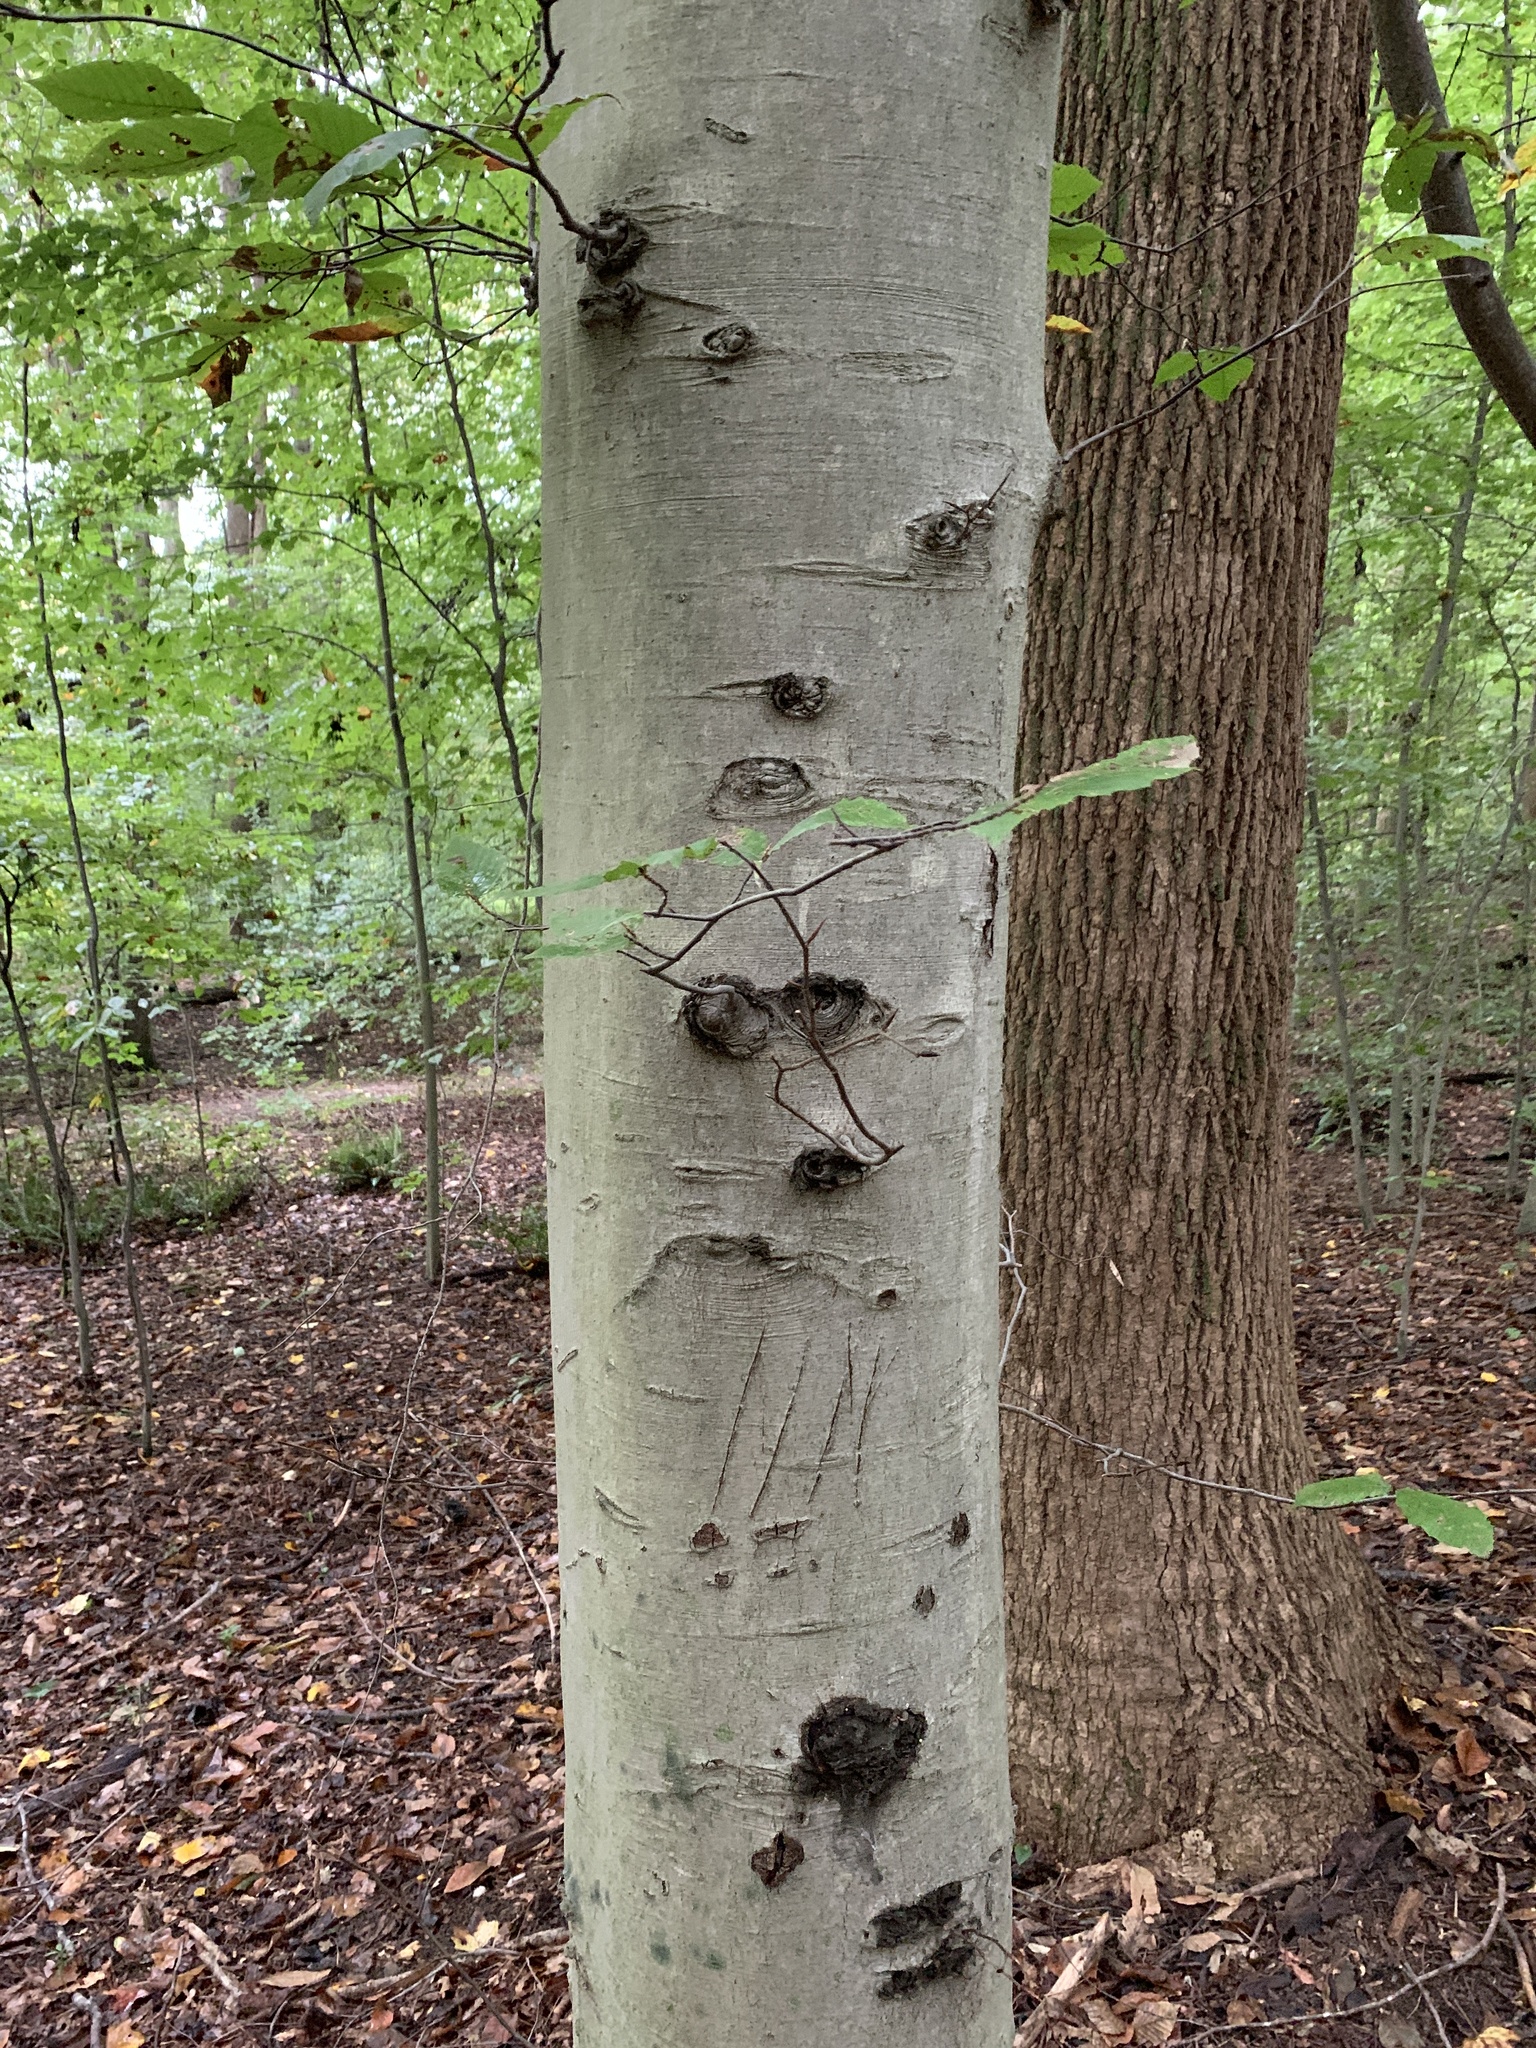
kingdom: Plantae
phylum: Tracheophyta
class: Magnoliopsida
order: Fagales
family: Fagaceae
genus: Fagus
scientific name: Fagus grandifolia
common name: American beech
